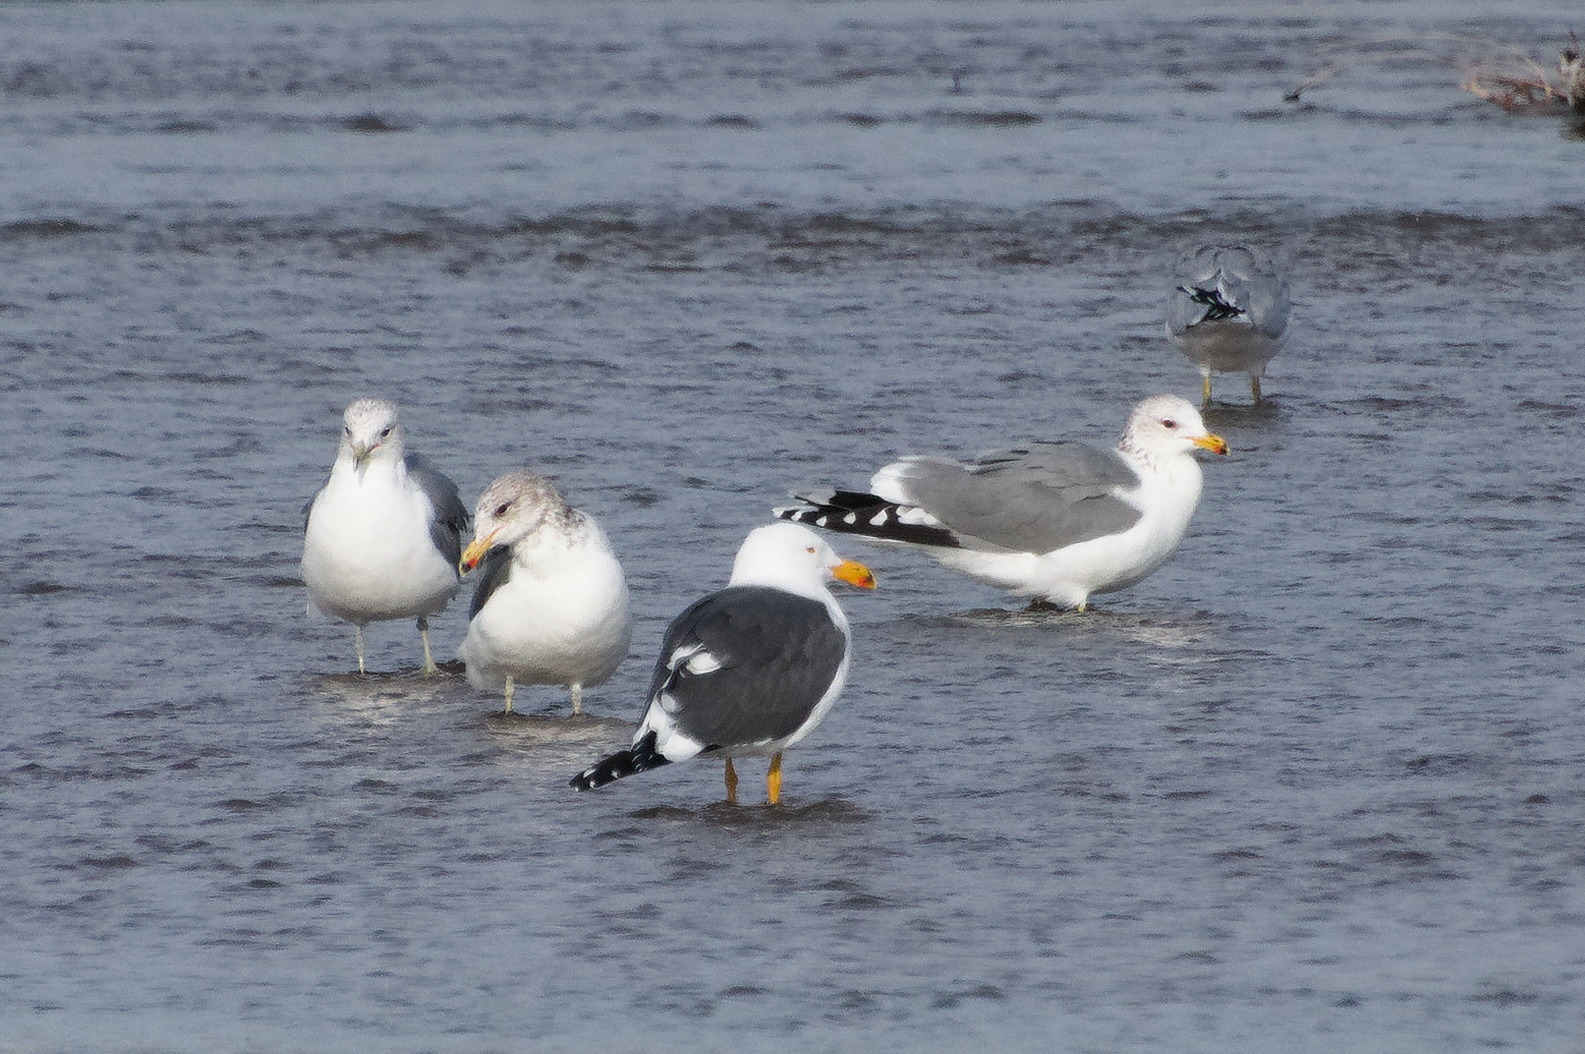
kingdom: Animalia
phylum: Chordata
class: Aves
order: Charadriiformes
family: Laridae
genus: Larus
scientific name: Larus livens
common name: Yellow-footed gull
